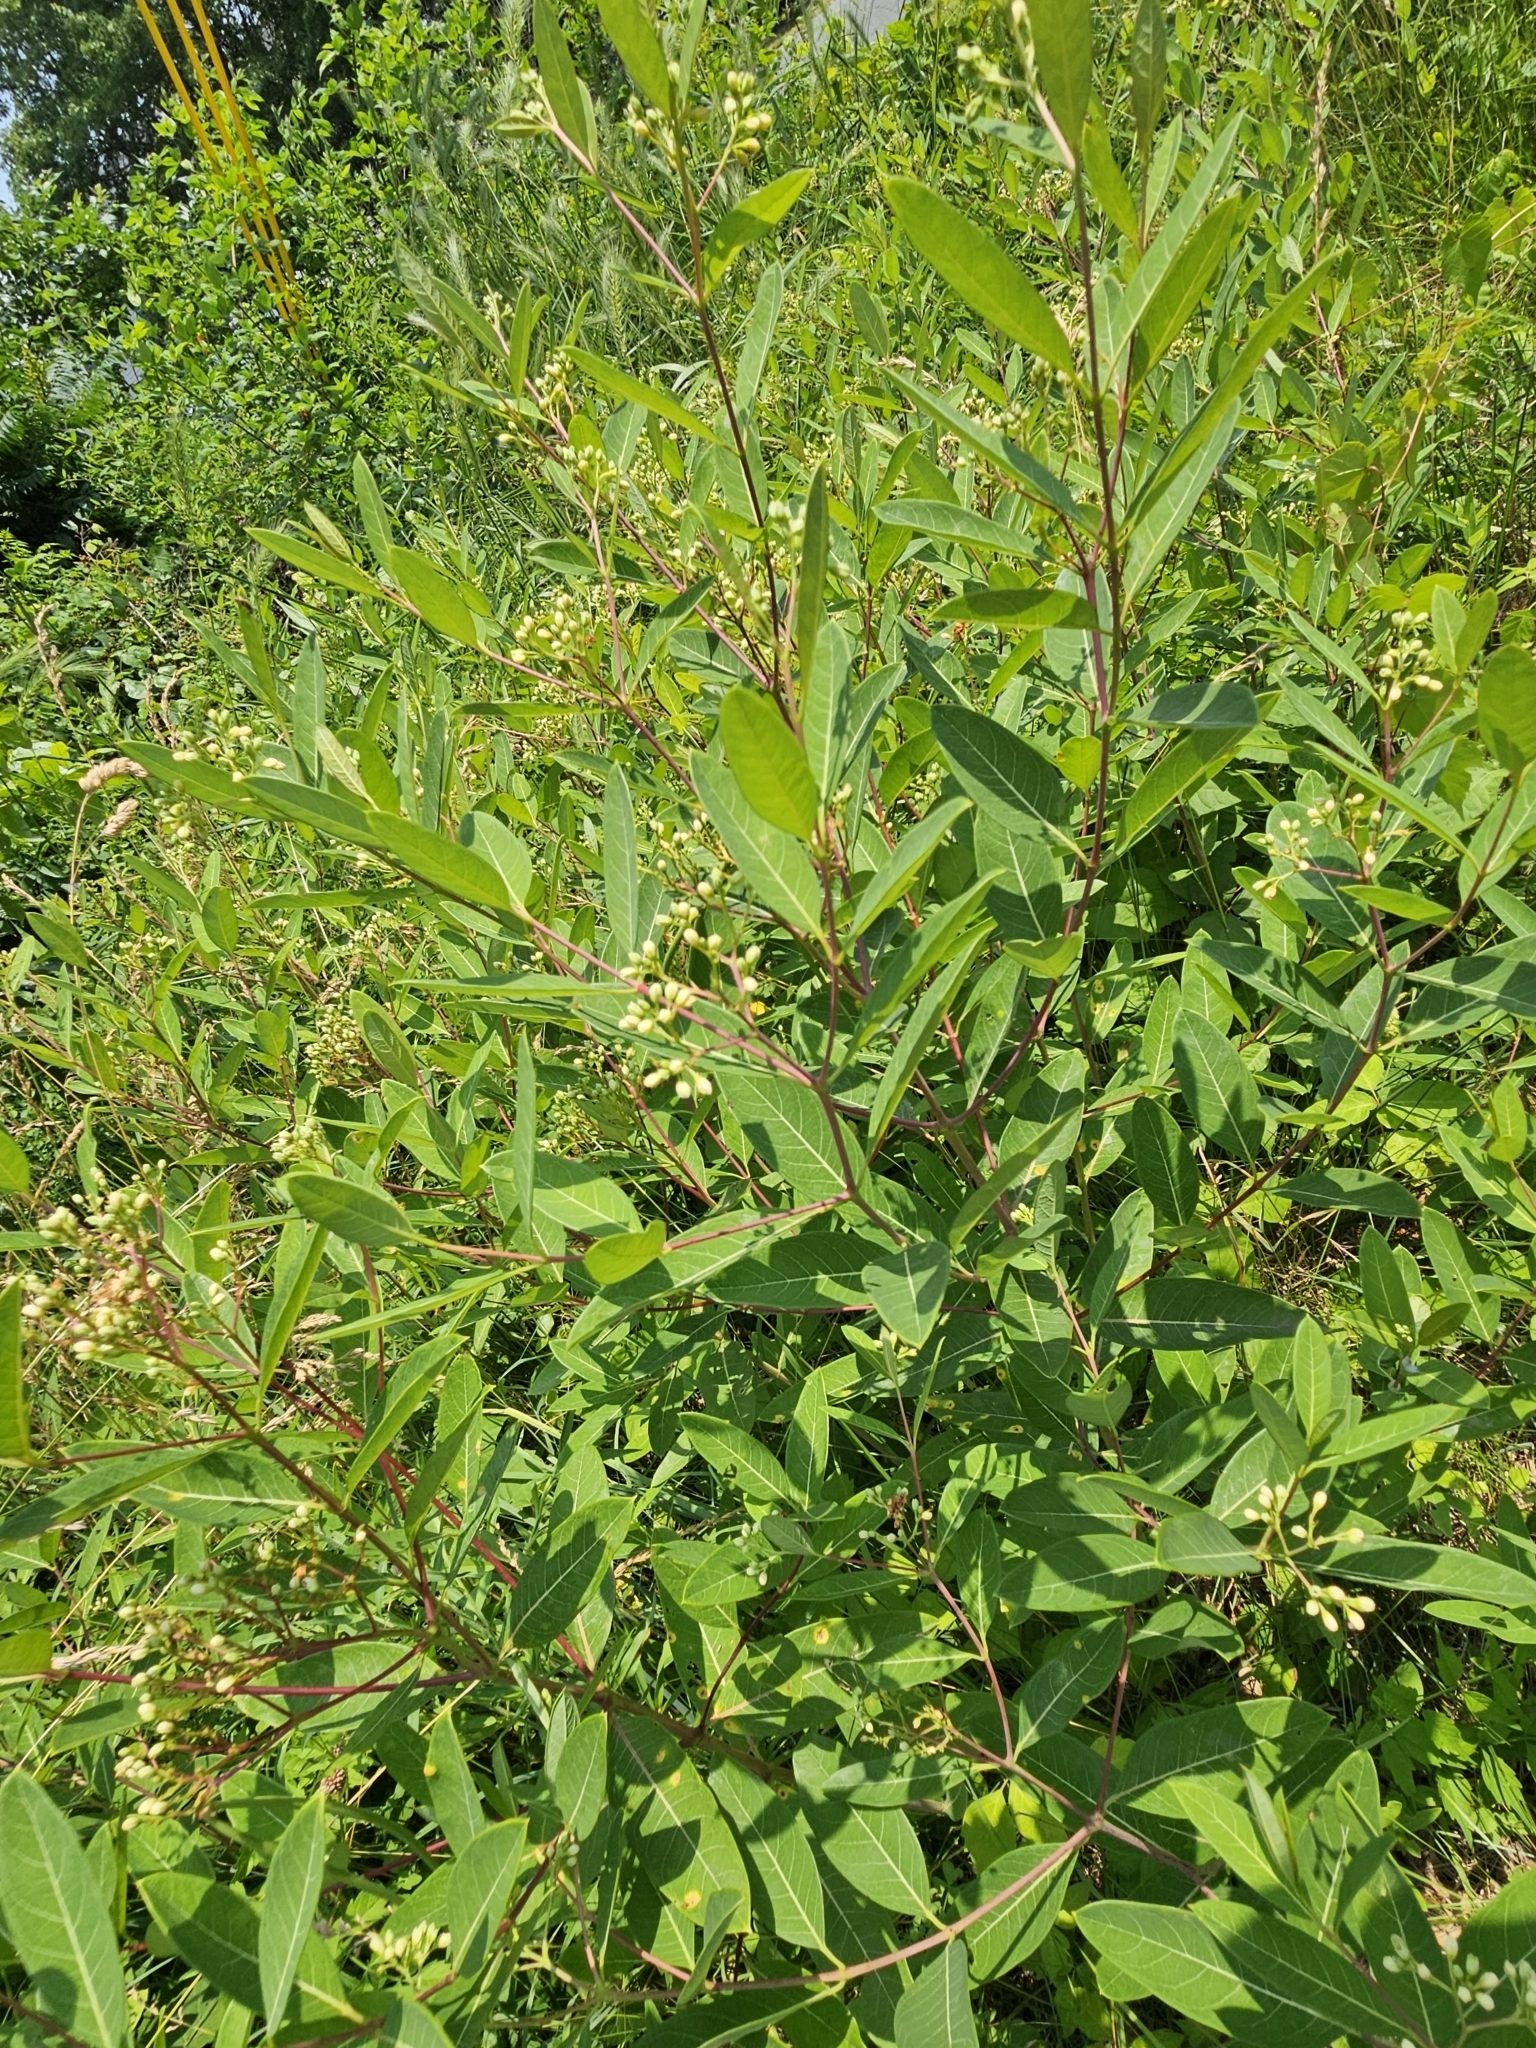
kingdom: Plantae
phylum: Tracheophyta
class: Magnoliopsida
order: Gentianales
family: Apocynaceae
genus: Apocynum
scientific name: Apocynum cannabinum
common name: Hemp dogbane
